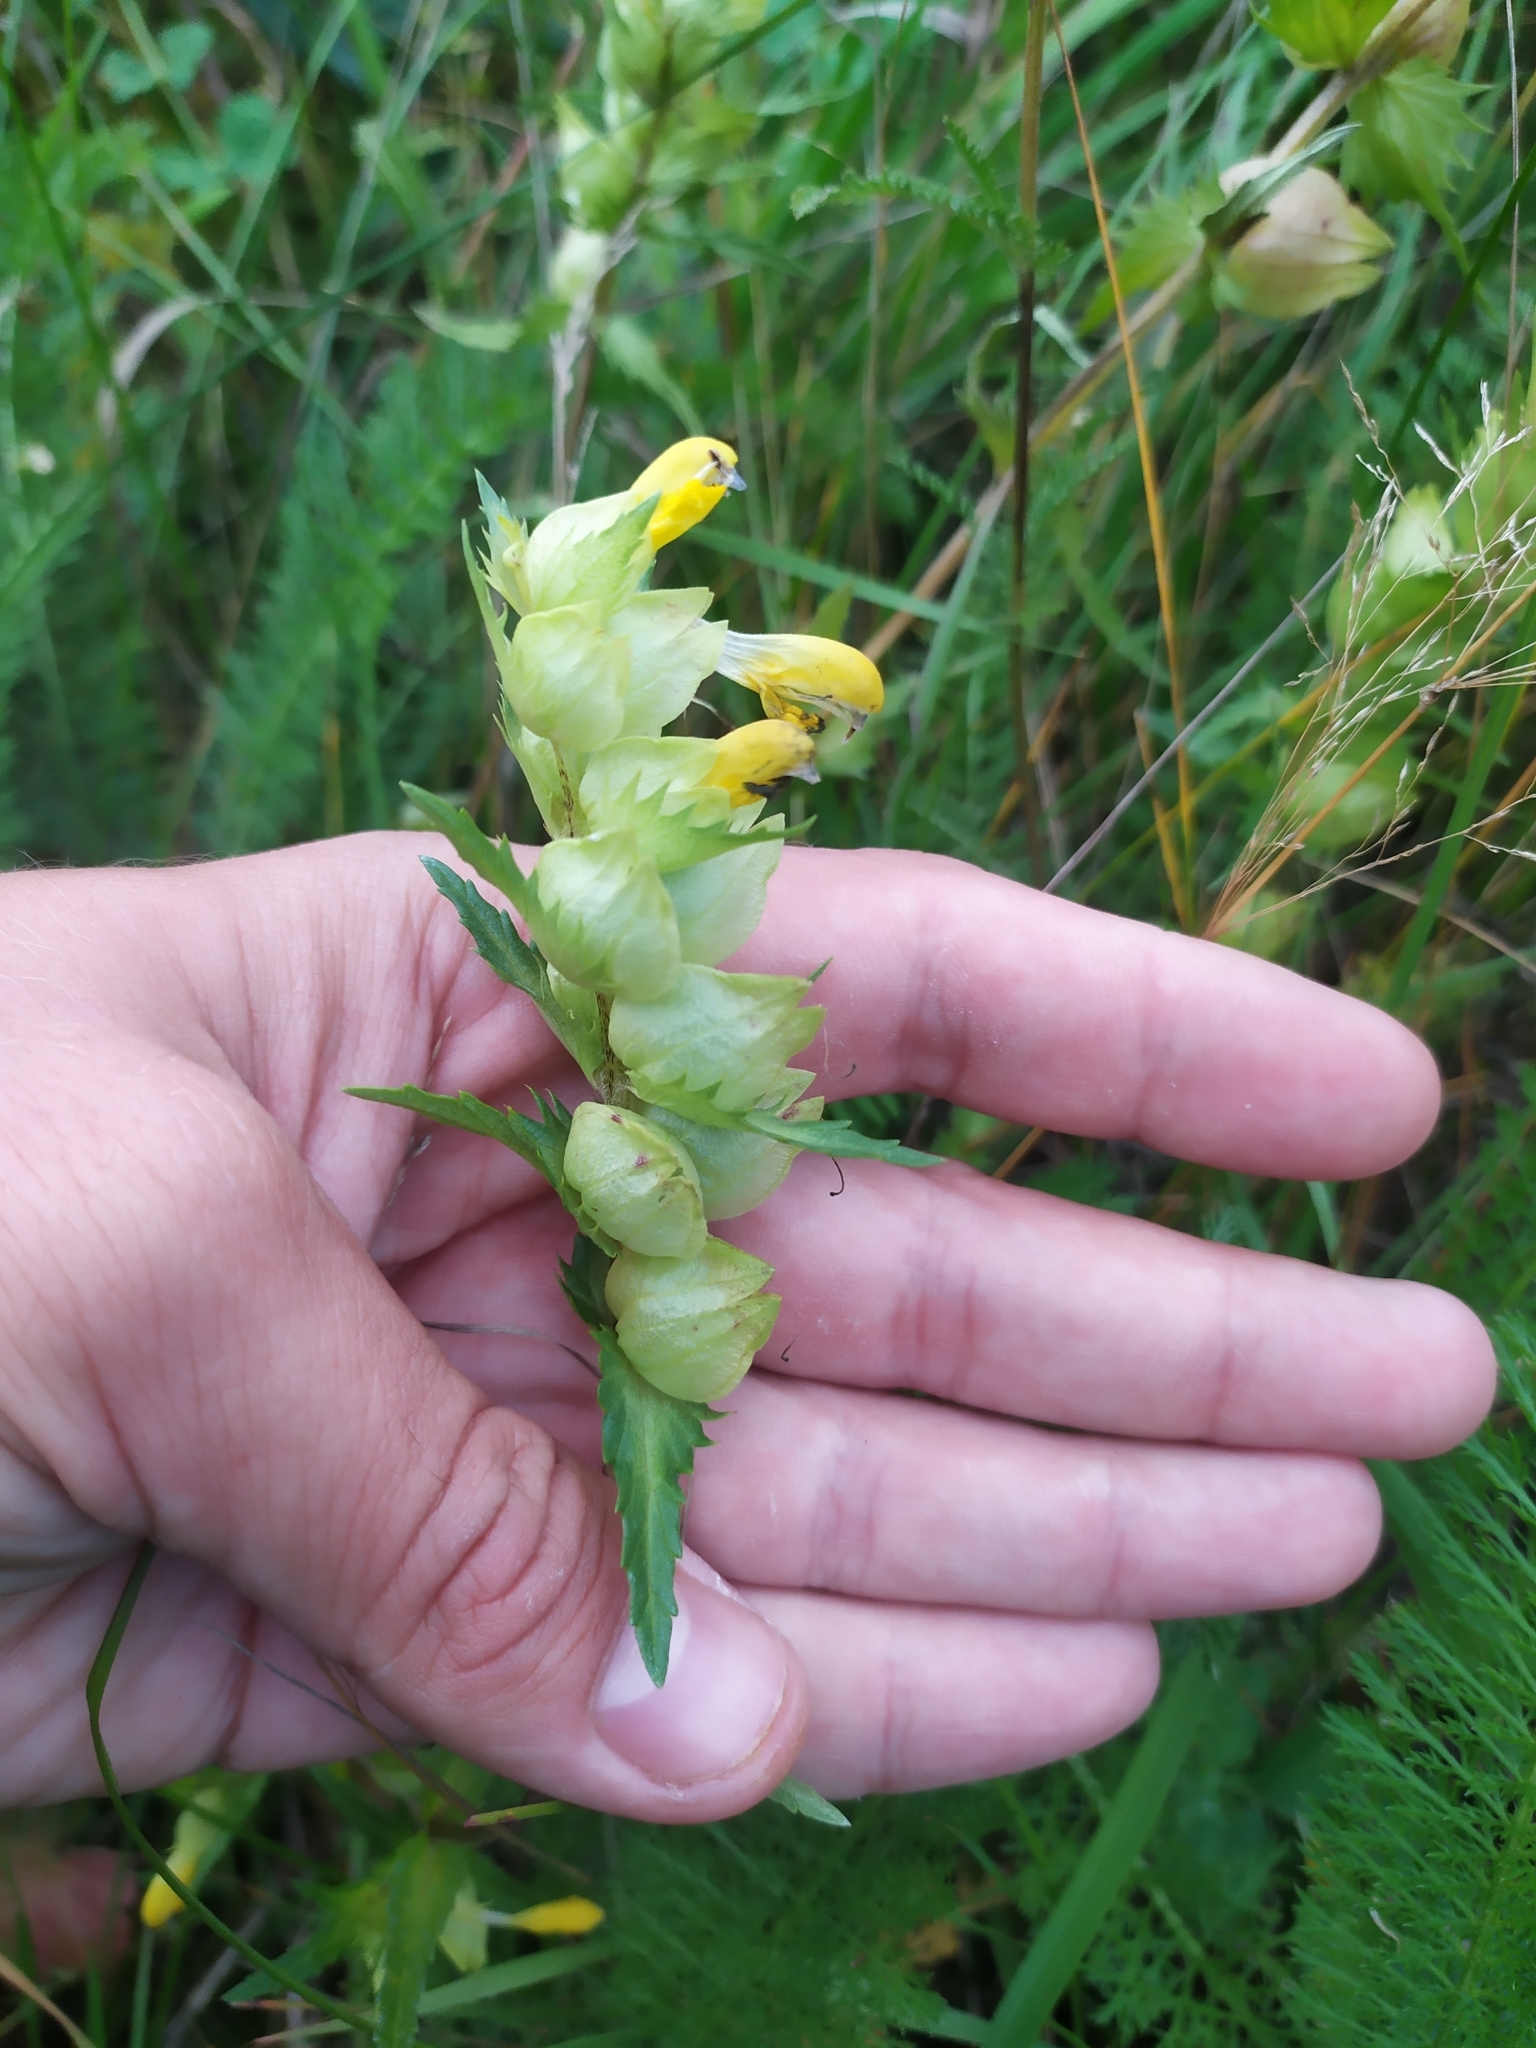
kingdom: Plantae
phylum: Tracheophyta
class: Magnoliopsida
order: Lamiales
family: Orobanchaceae
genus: Rhinanthus
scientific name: Rhinanthus serotinus
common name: Late-flowering yellow rattle
